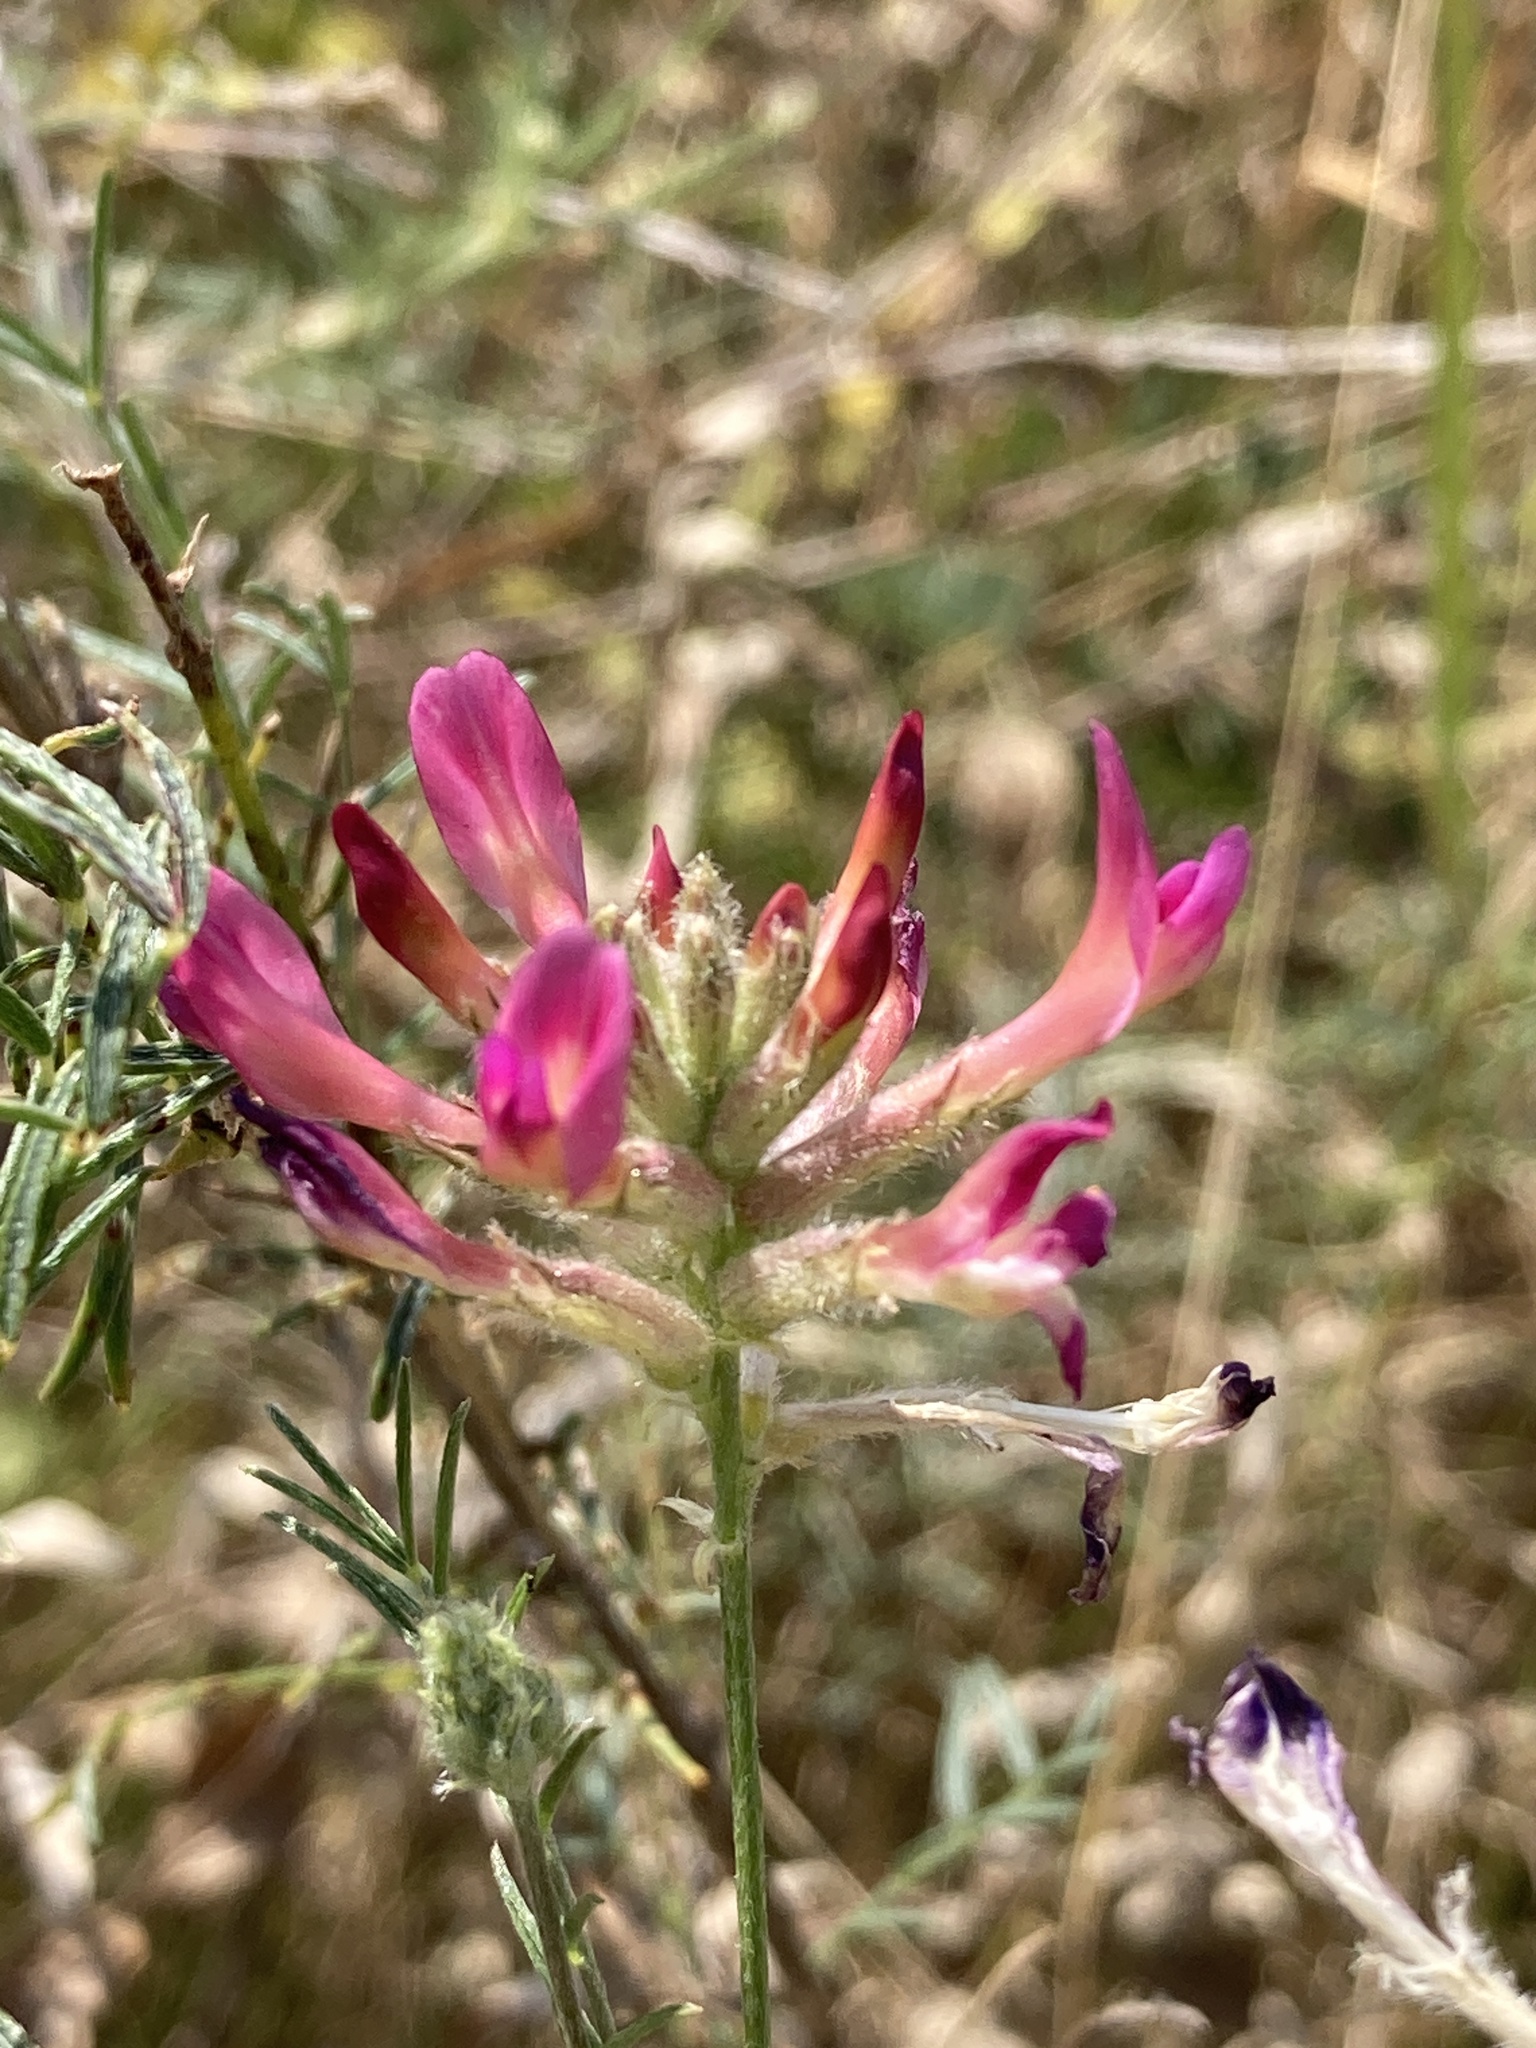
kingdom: Plantae
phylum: Tracheophyta
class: Magnoliopsida
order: Fabales
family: Fabaceae
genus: Astragalus
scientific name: Astragalus cornutus
